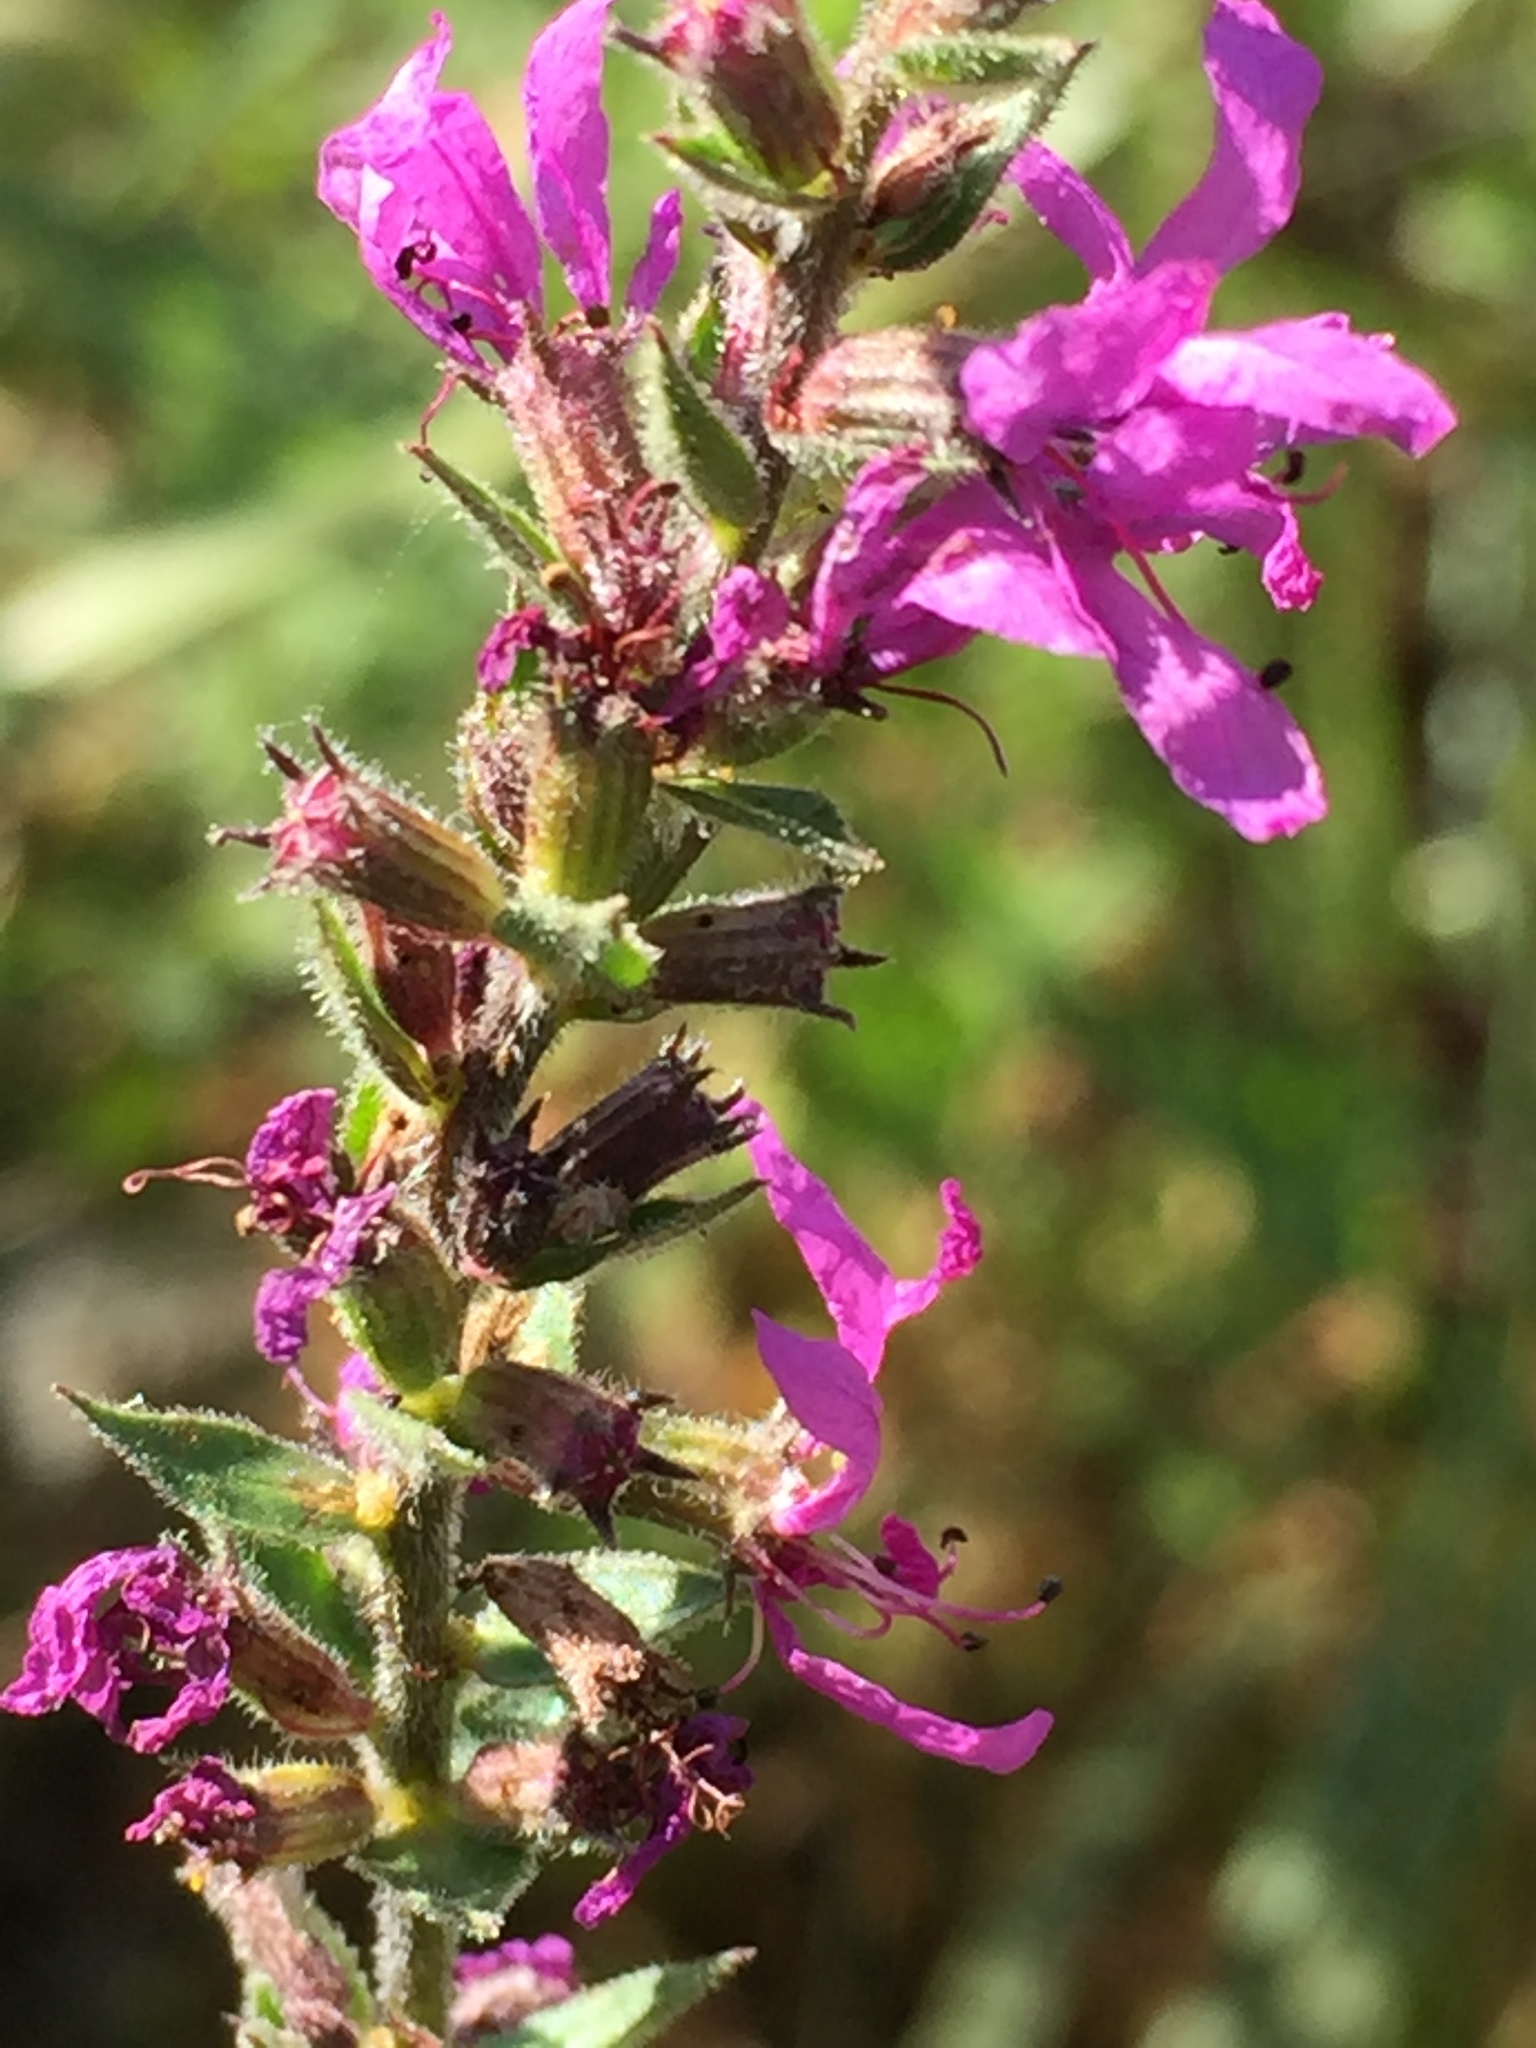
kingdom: Plantae
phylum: Tracheophyta
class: Magnoliopsida
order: Myrtales
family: Lythraceae
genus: Lythrum
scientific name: Lythrum salicaria
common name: Purple loosestrife
